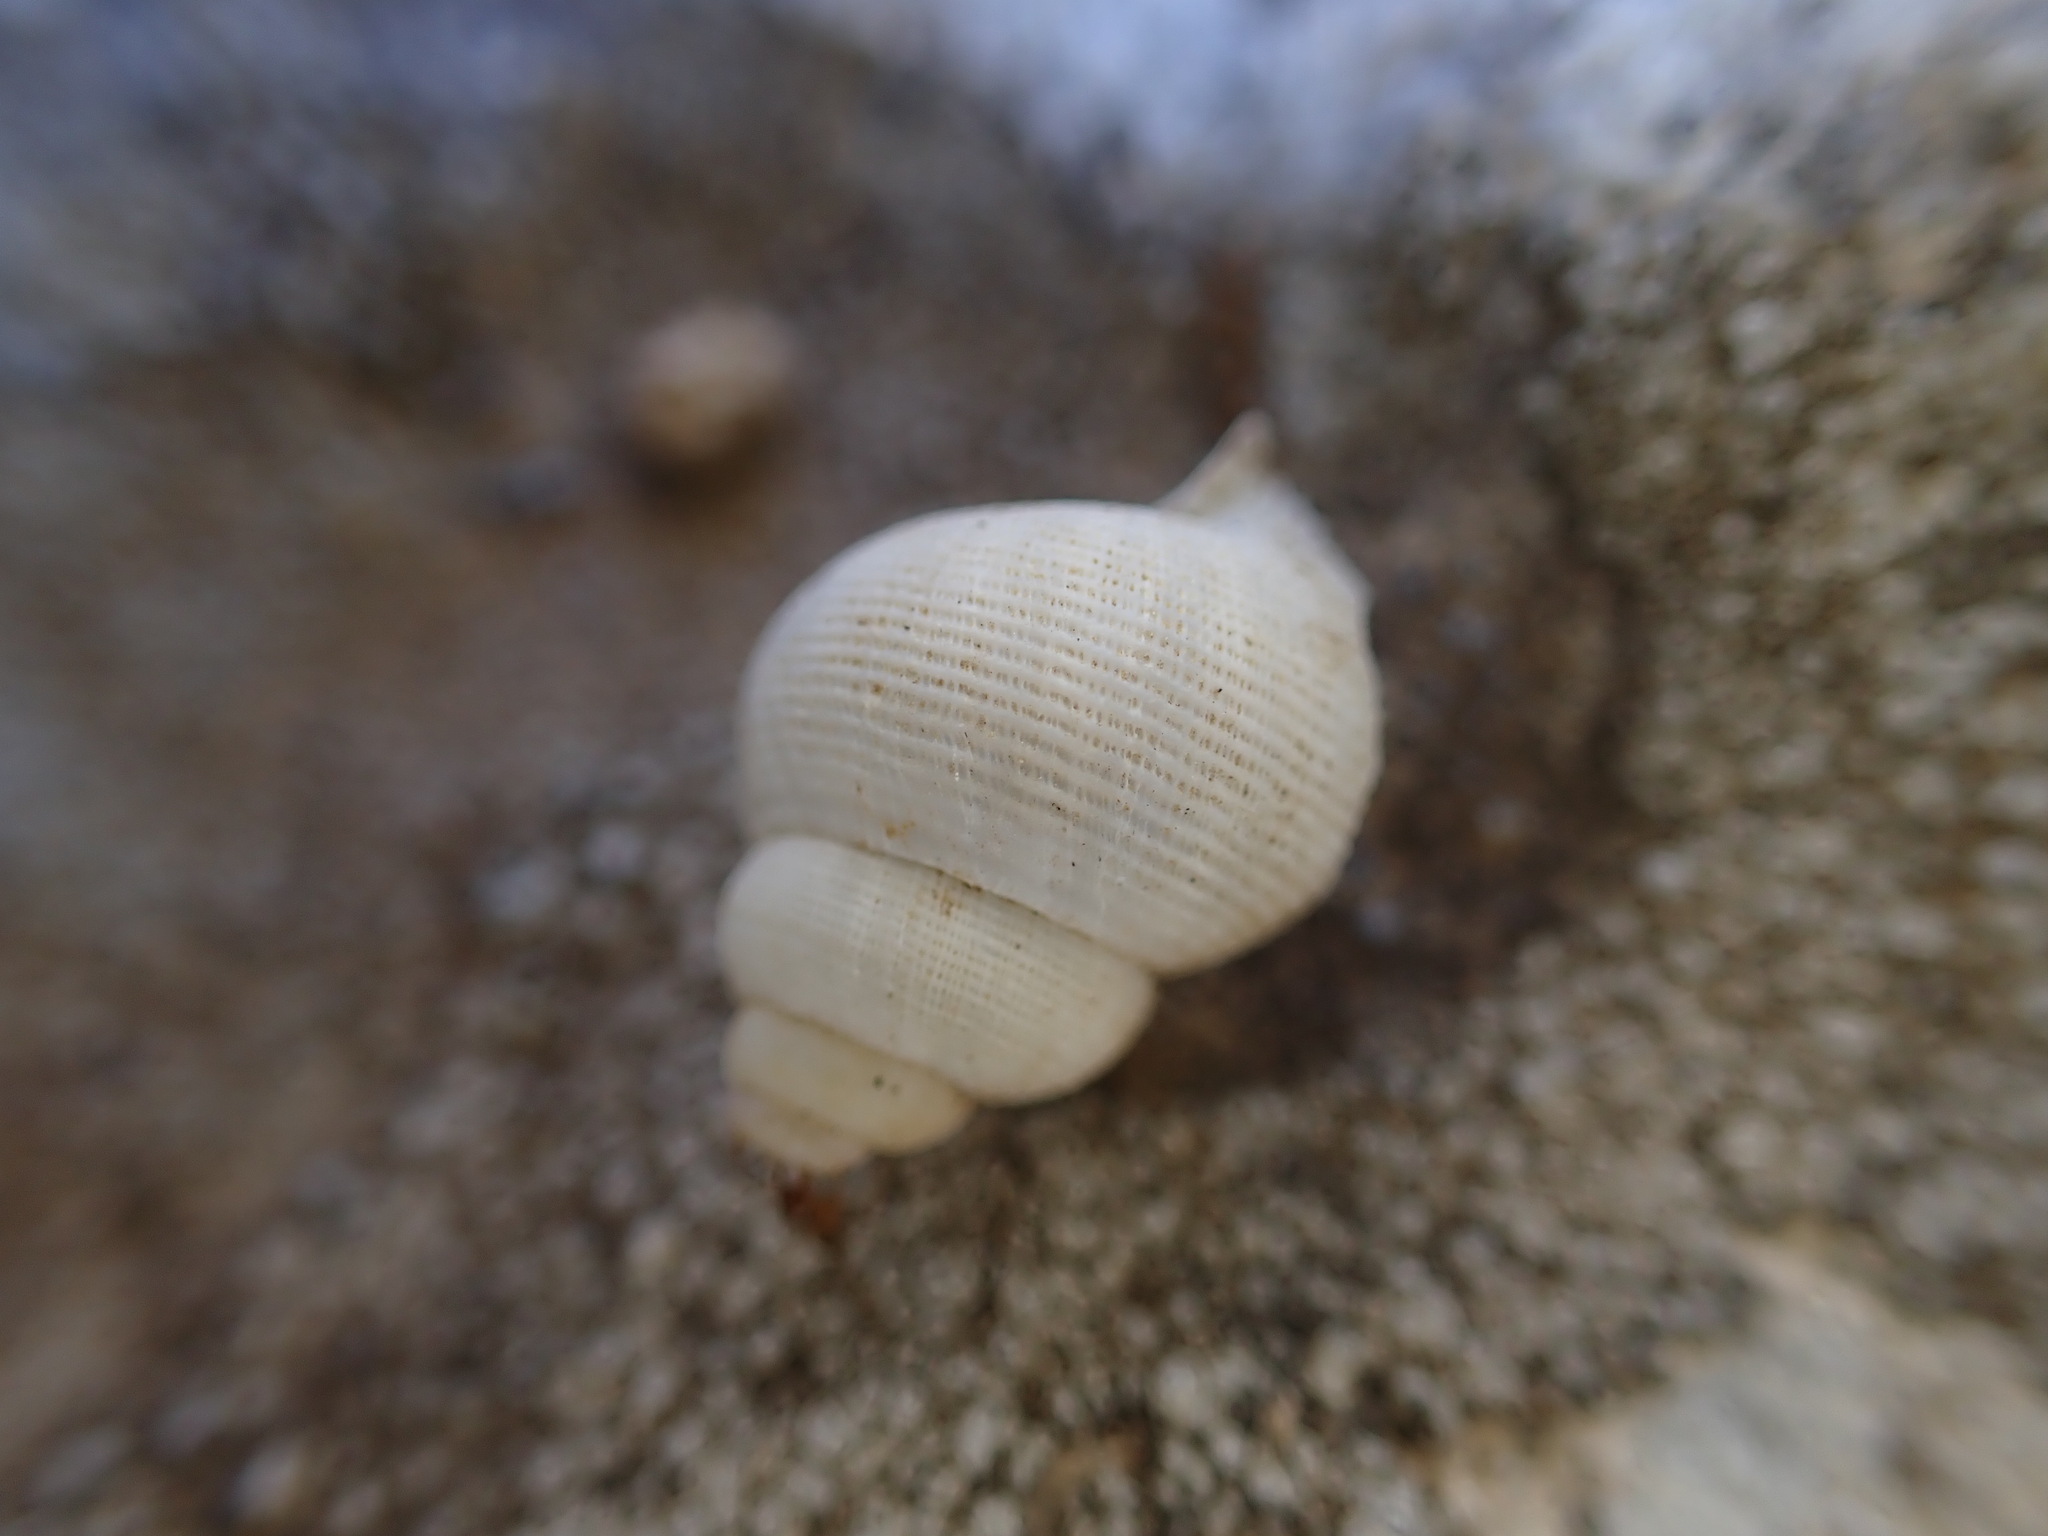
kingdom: Animalia
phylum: Mollusca
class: Gastropoda
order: Littorinimorpha
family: Pomatiidae
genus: Pomatias
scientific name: Pomatias elegans
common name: Red-mouthed snail
